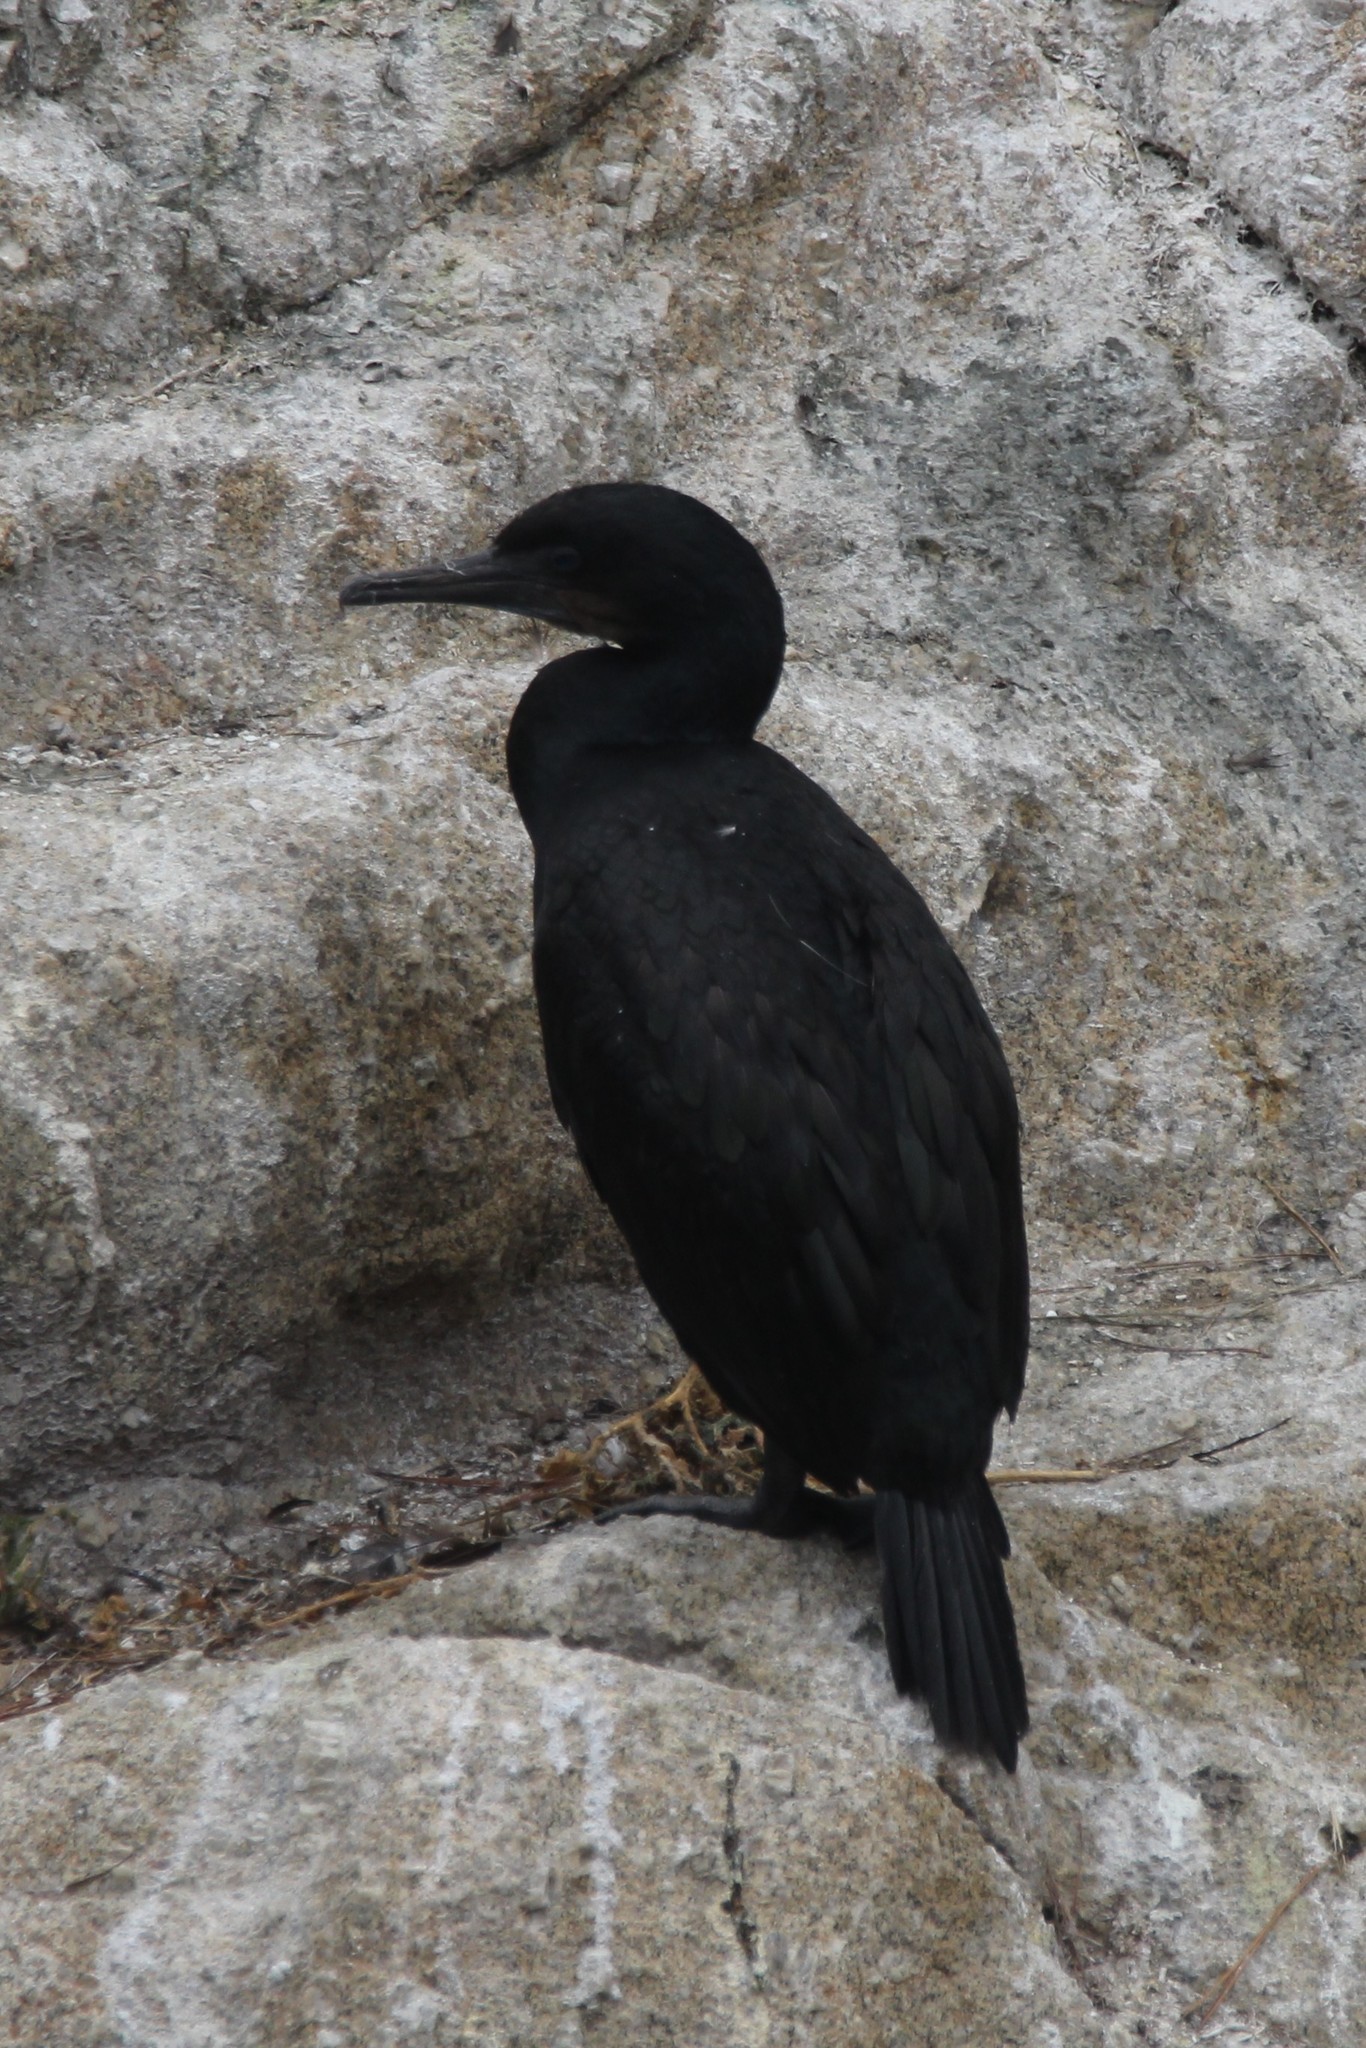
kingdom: Animalia
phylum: Chordata
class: Aves
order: Suliformes
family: Phalacrocoracidae
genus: Urile
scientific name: Urile penicillatus
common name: Brandt's cormorant
